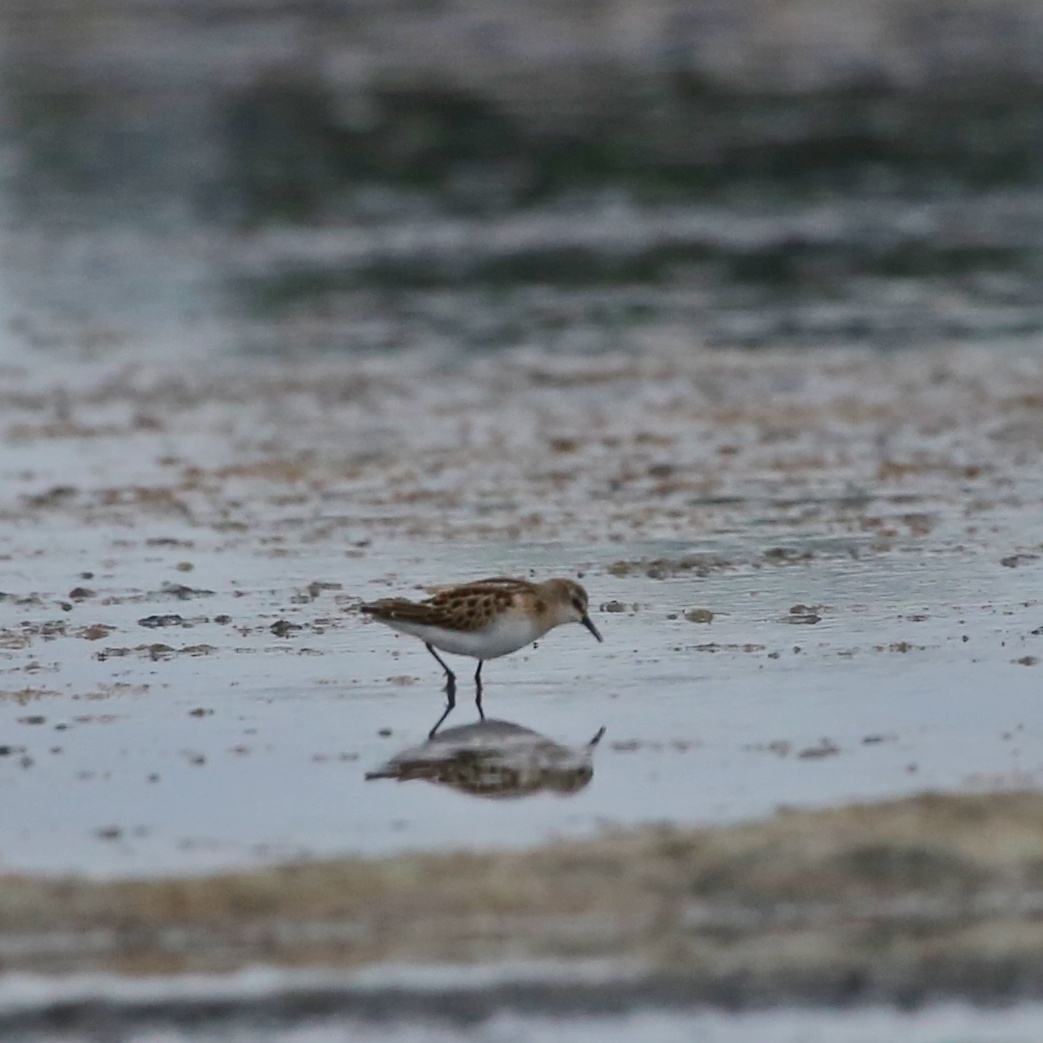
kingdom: Animalia
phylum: Chordata
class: Aves
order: Charadriiformes
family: Scolopacidae
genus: Calidris
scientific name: Calidris minuta
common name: Little stint
